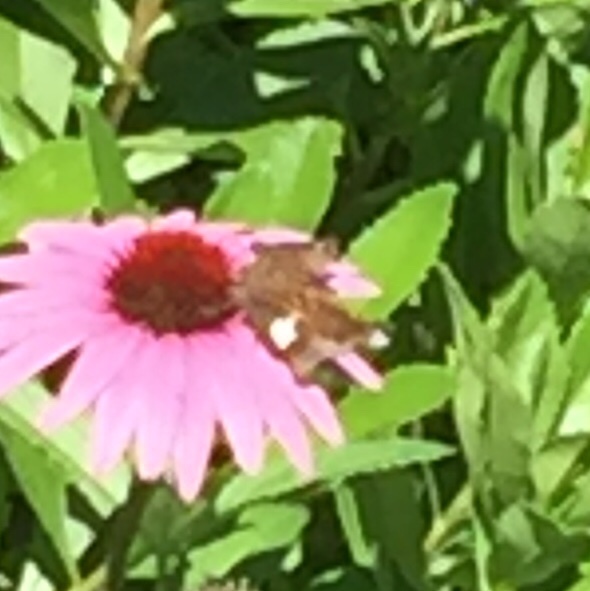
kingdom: Animalia
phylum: Arthropoda
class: Insecta
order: Lepidoptera
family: Hesperiidae
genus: Epargyreus
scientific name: Epargyreus clarus
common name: Silver-spotted skipper
